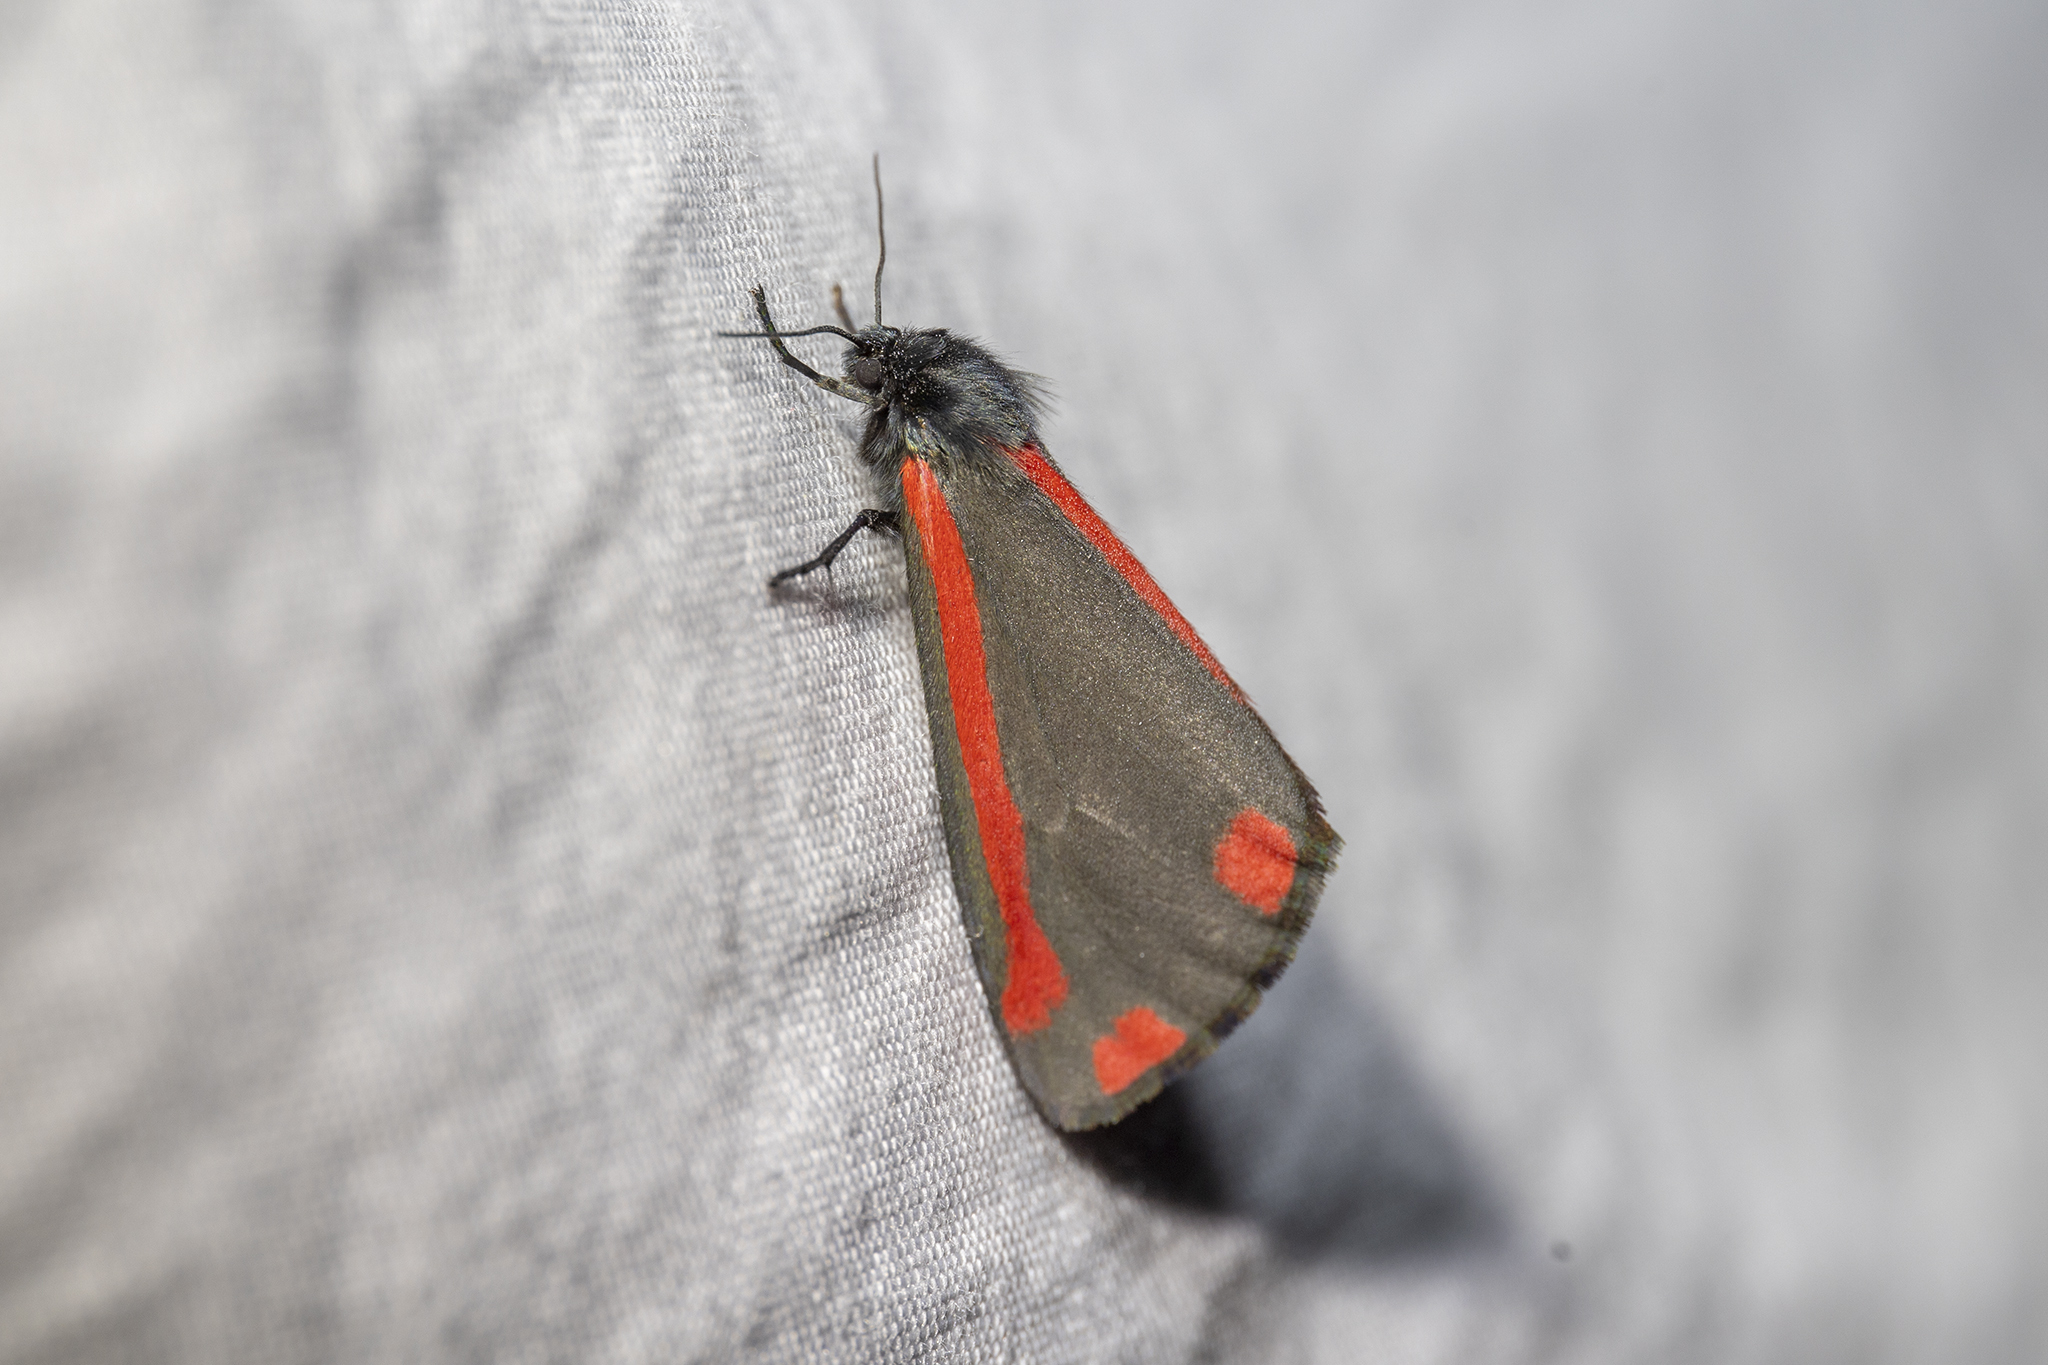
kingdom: Animalia
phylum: Arthropoda
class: Insecta
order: Lepidoptera
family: Erebidae
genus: Tyria
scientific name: Tyria jacobaeae
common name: Cinnabar
